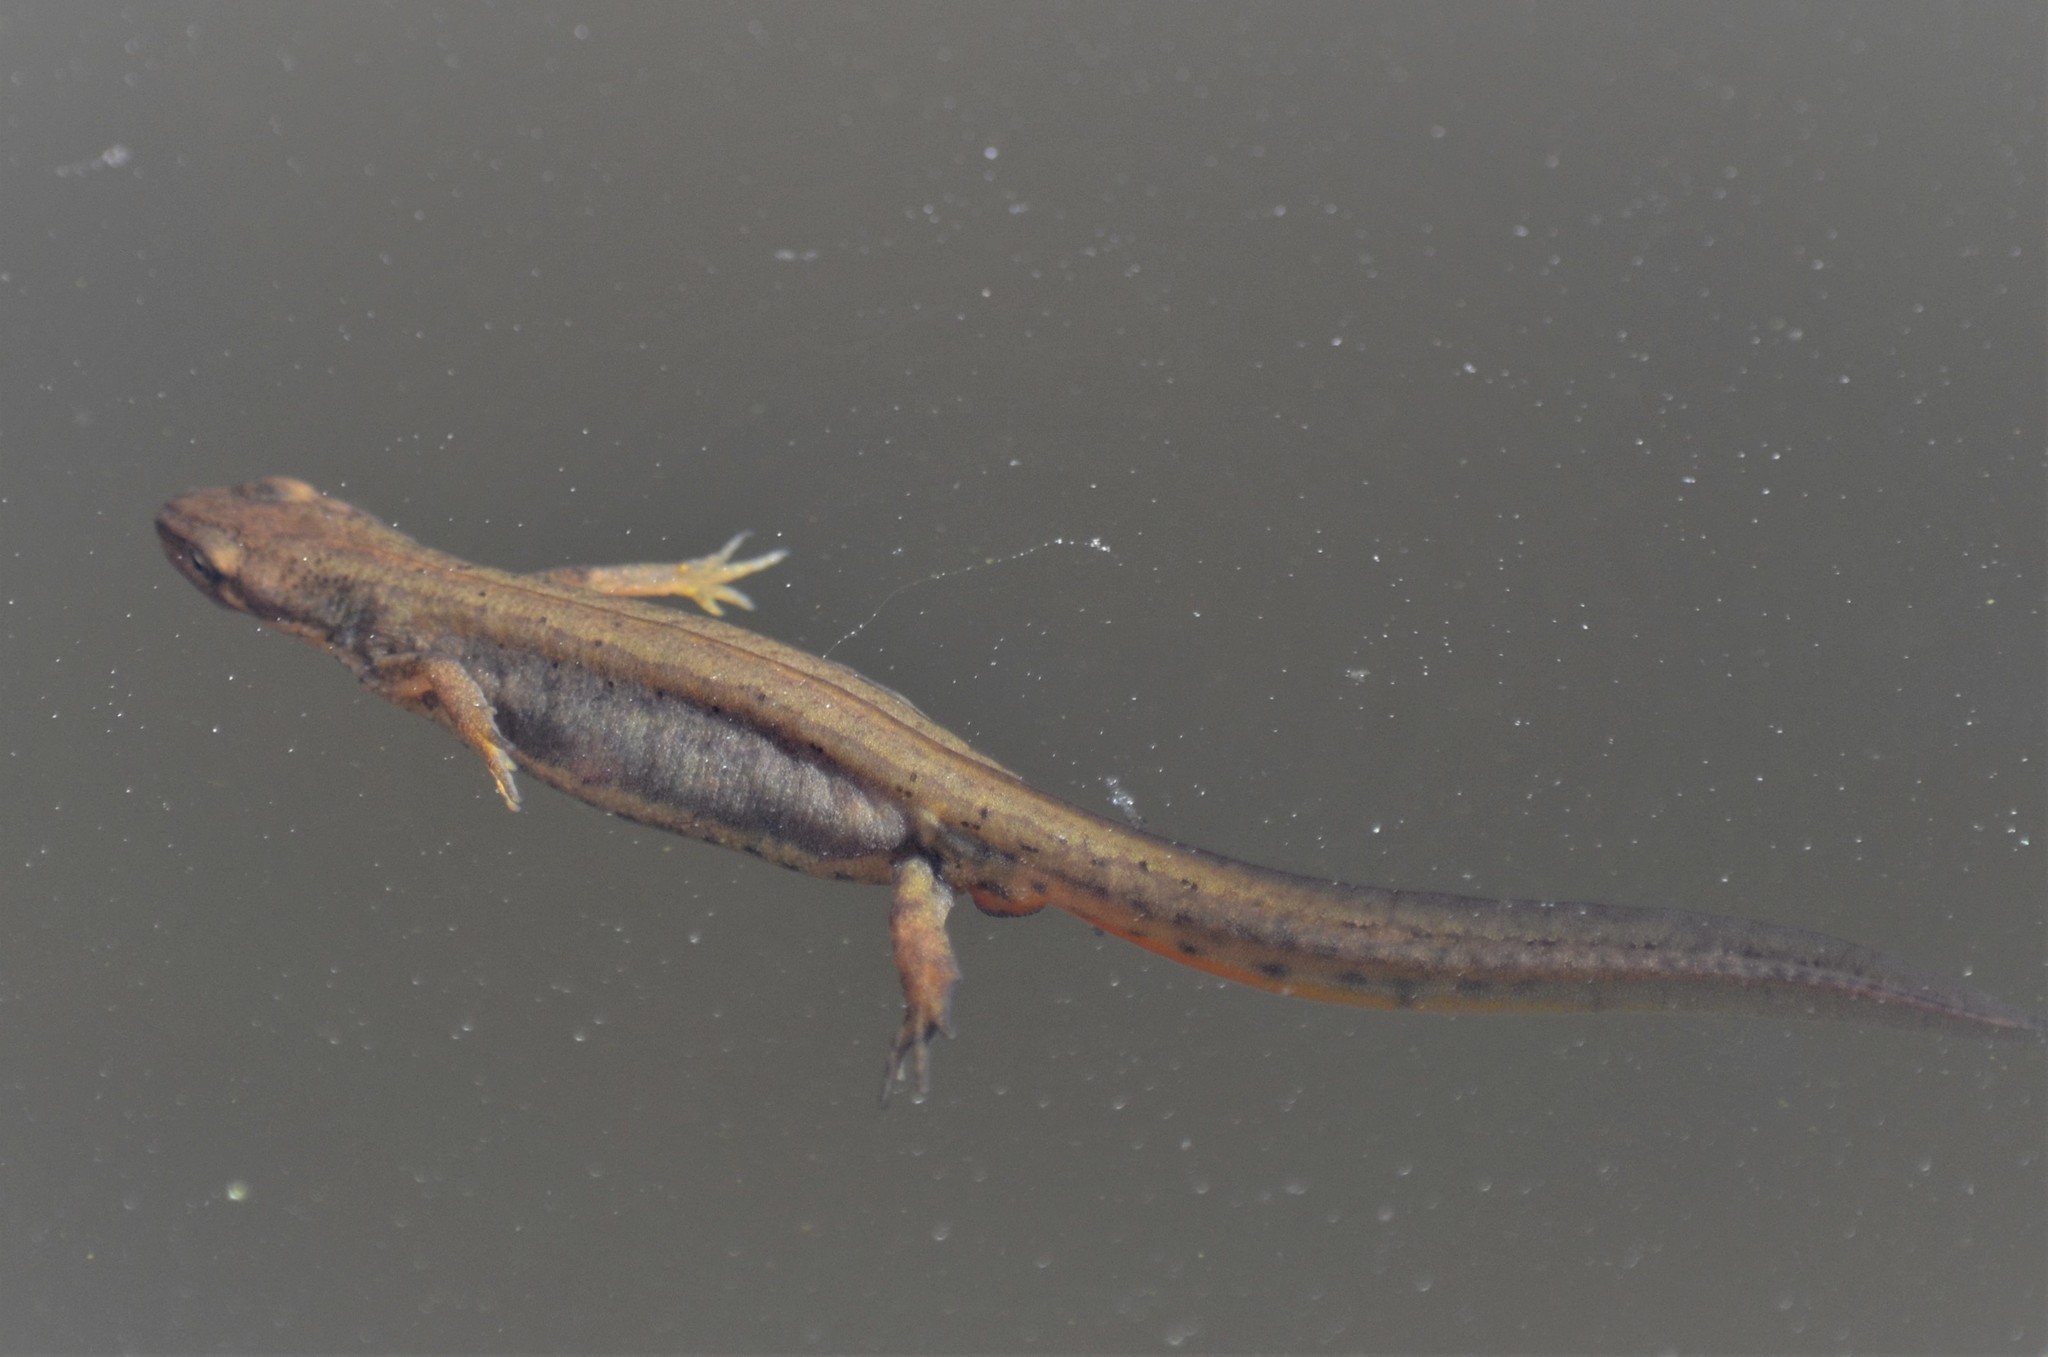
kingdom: Animalia
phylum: Chordata
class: Amphibia
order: Caudata
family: Salamandridae
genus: Lissotriton
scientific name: Lissotriton vulgaris
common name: Smooth newt
